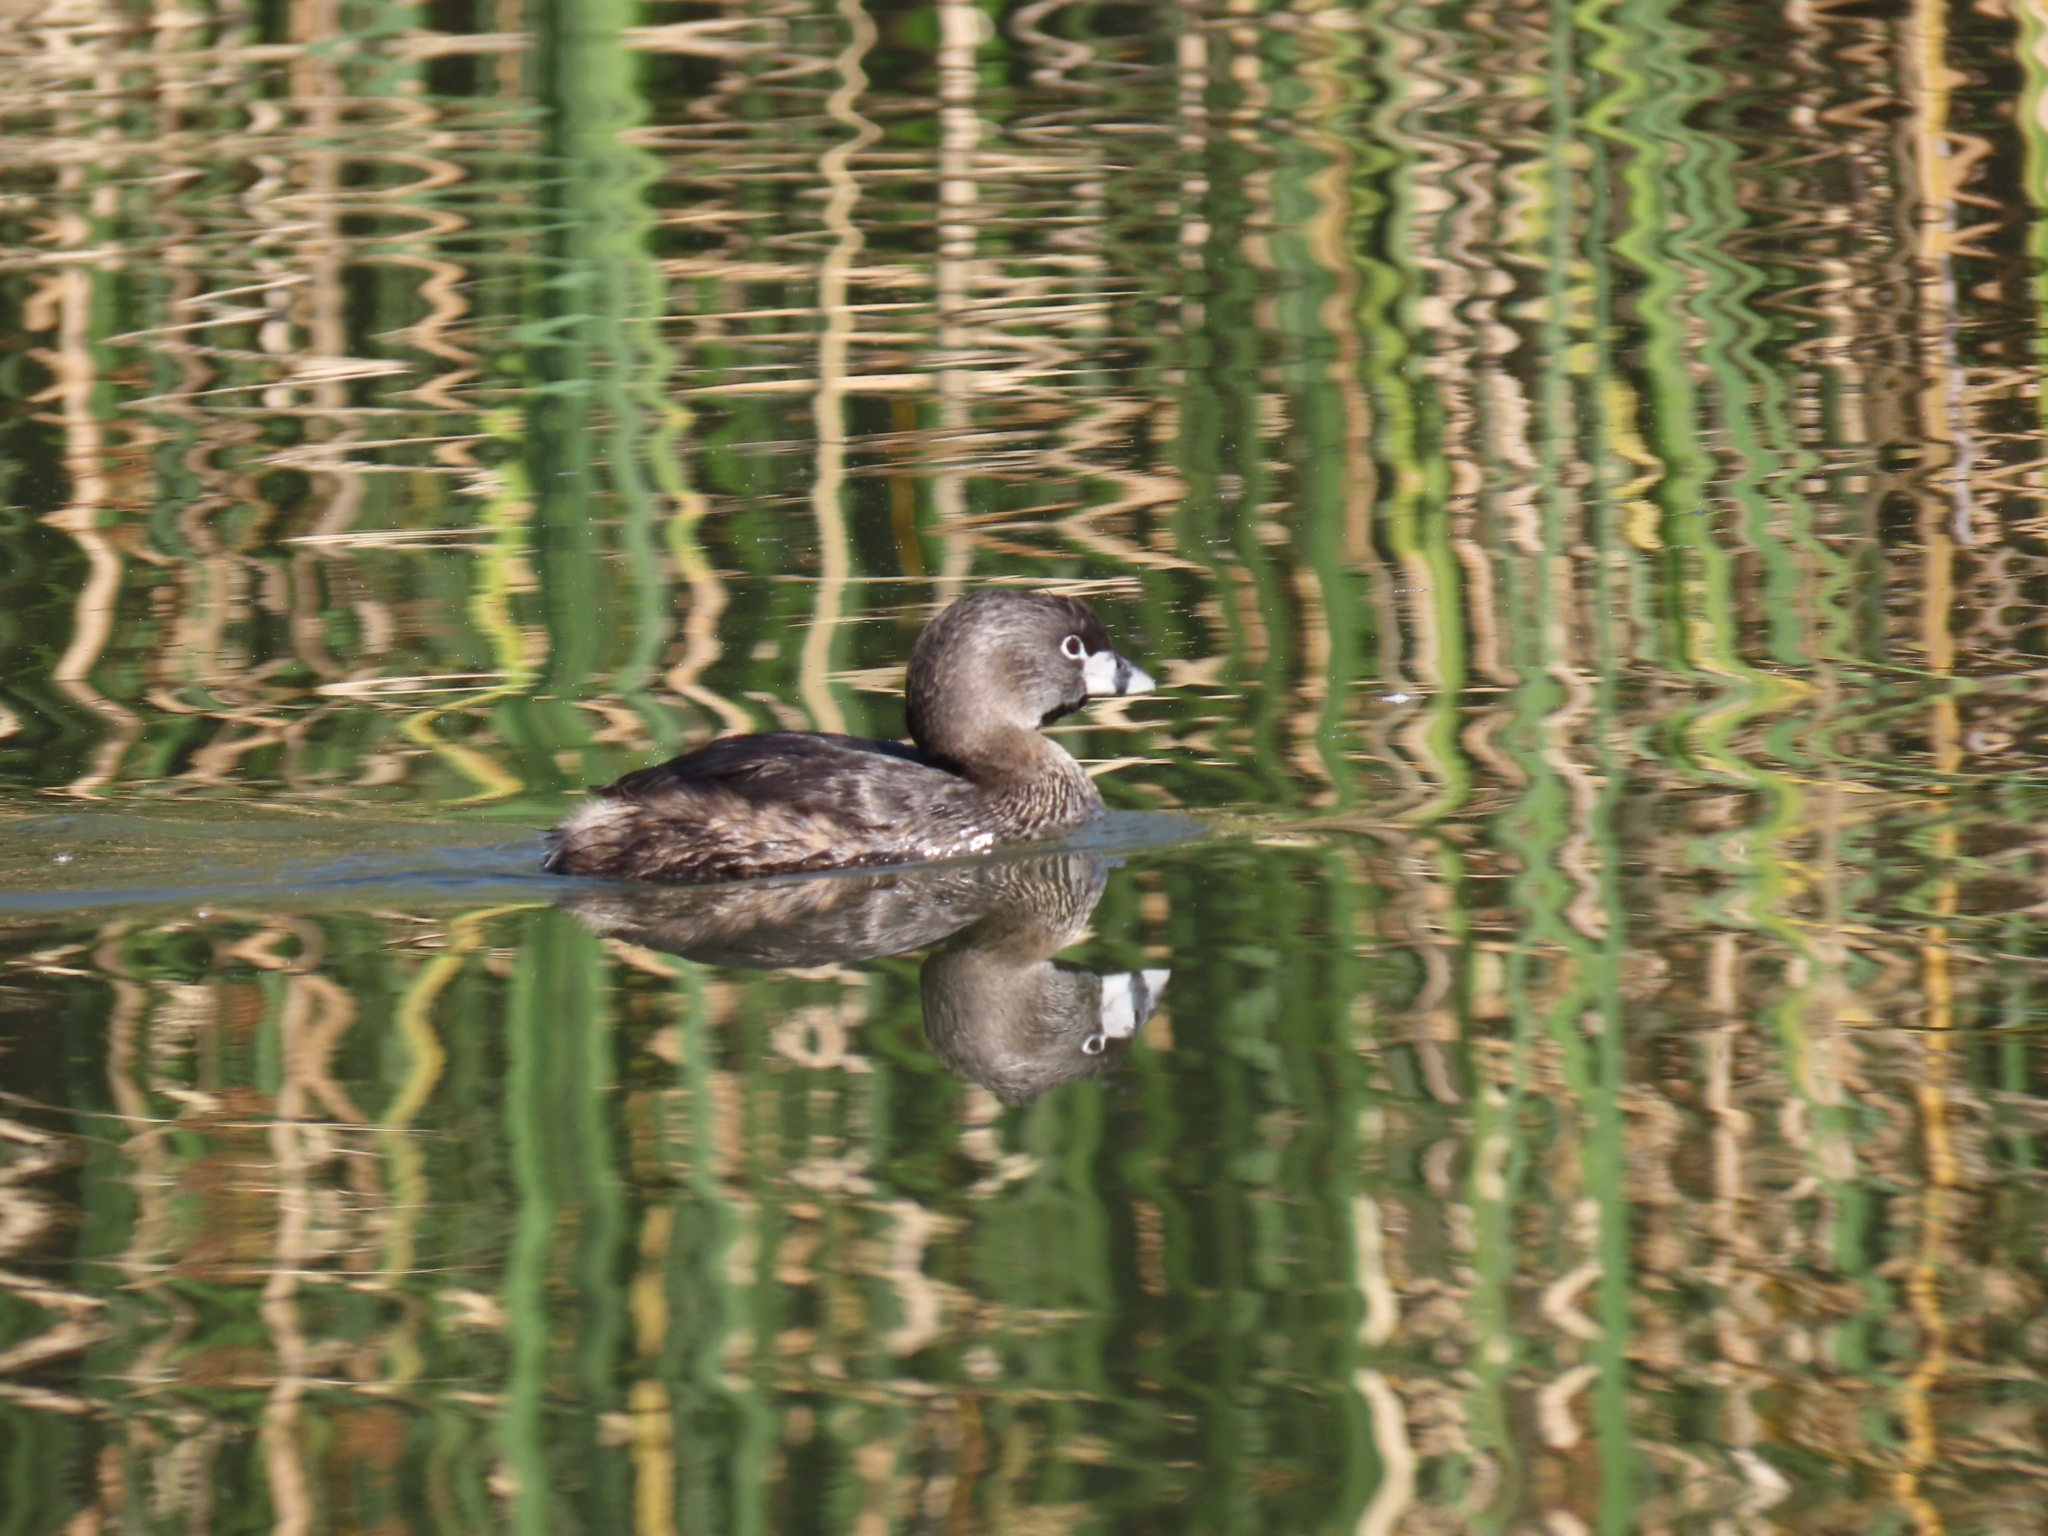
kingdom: Animalia
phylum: Chordata
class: Aves
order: Podicipediformes
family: Podicipedidae
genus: Podilymbus
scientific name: Podilymbus podiceps
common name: Pied-billed grebe
